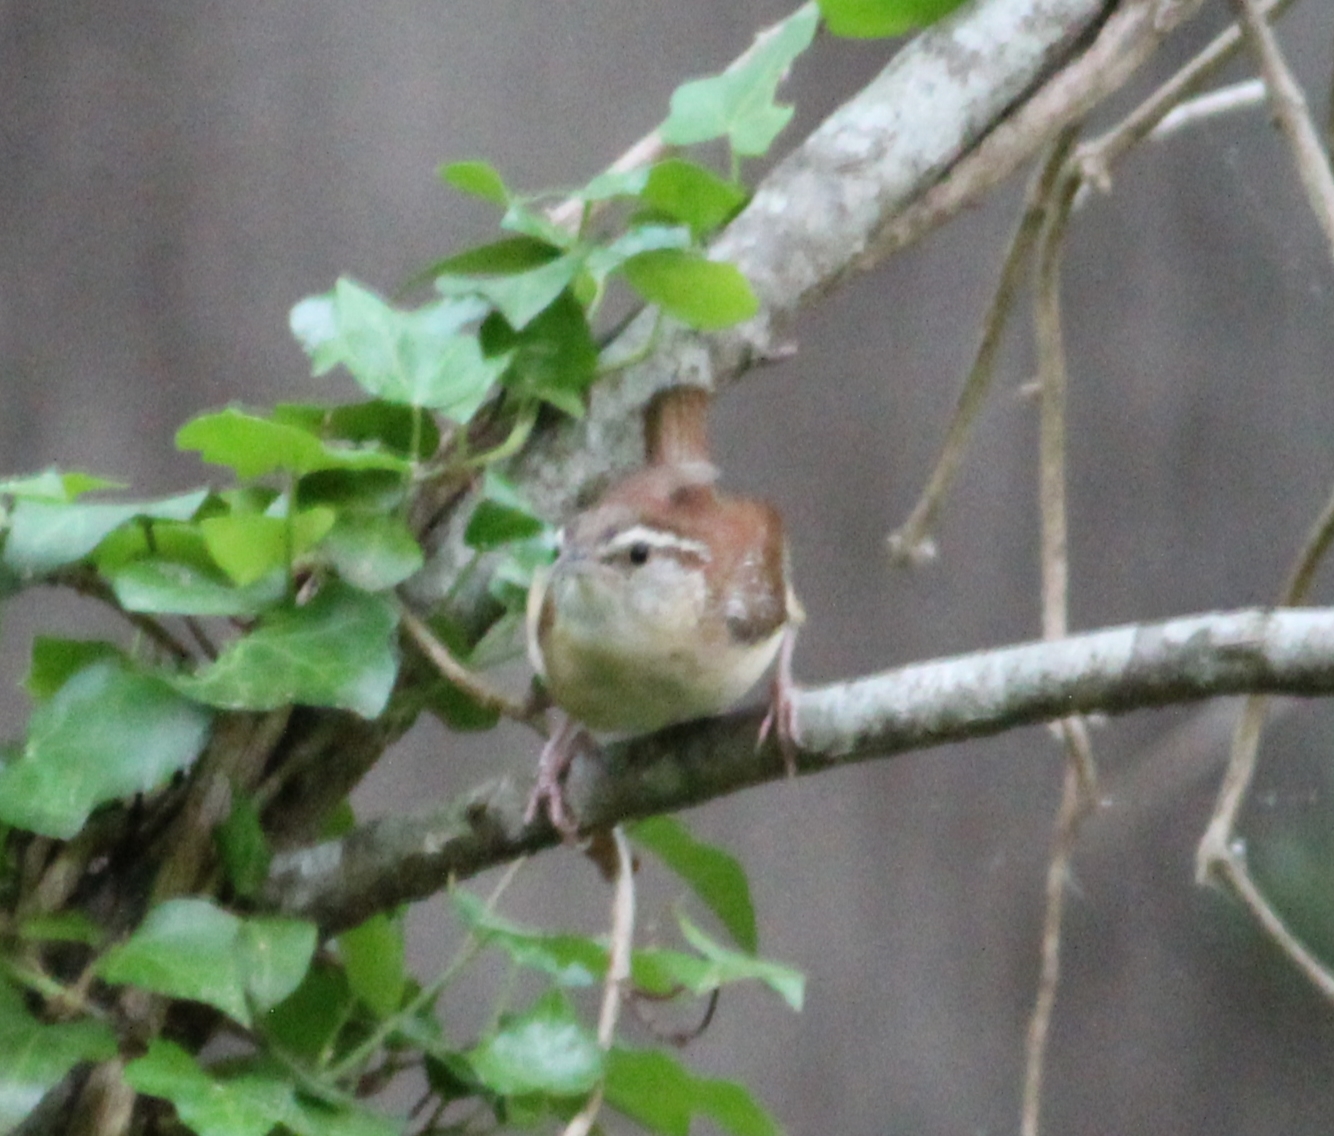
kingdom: Animalia
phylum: Chordata
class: Aves
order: Passeriformes
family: Troglodytidae
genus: Thryothorus
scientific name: Thryothorus ludovicianus
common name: Carolina wren
